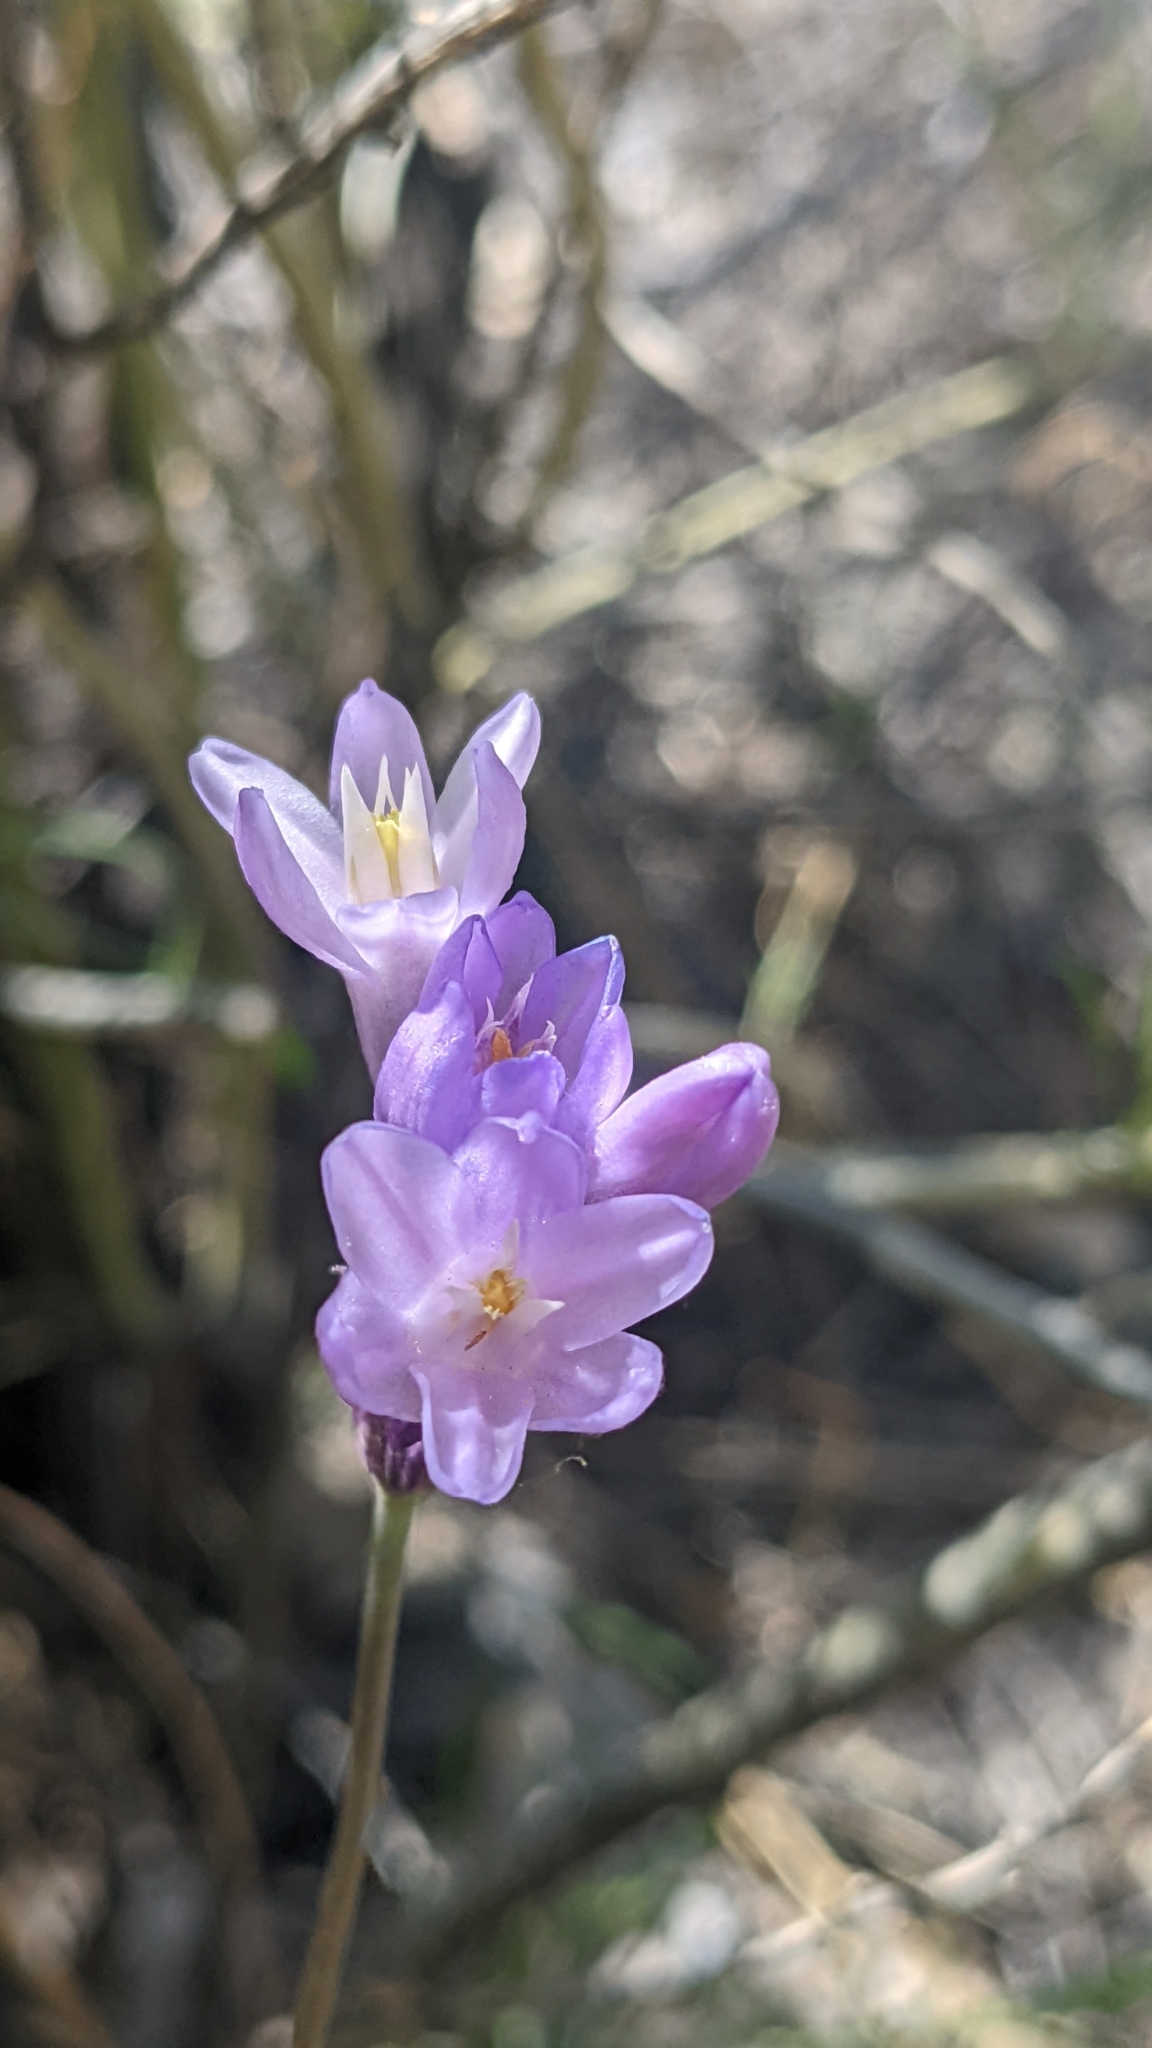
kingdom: Plantae
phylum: Tracheophyta
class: Liliopsida
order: Asparagales
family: Asparagaceae
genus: Dipterostemon
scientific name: Dipterostemon capitatus
